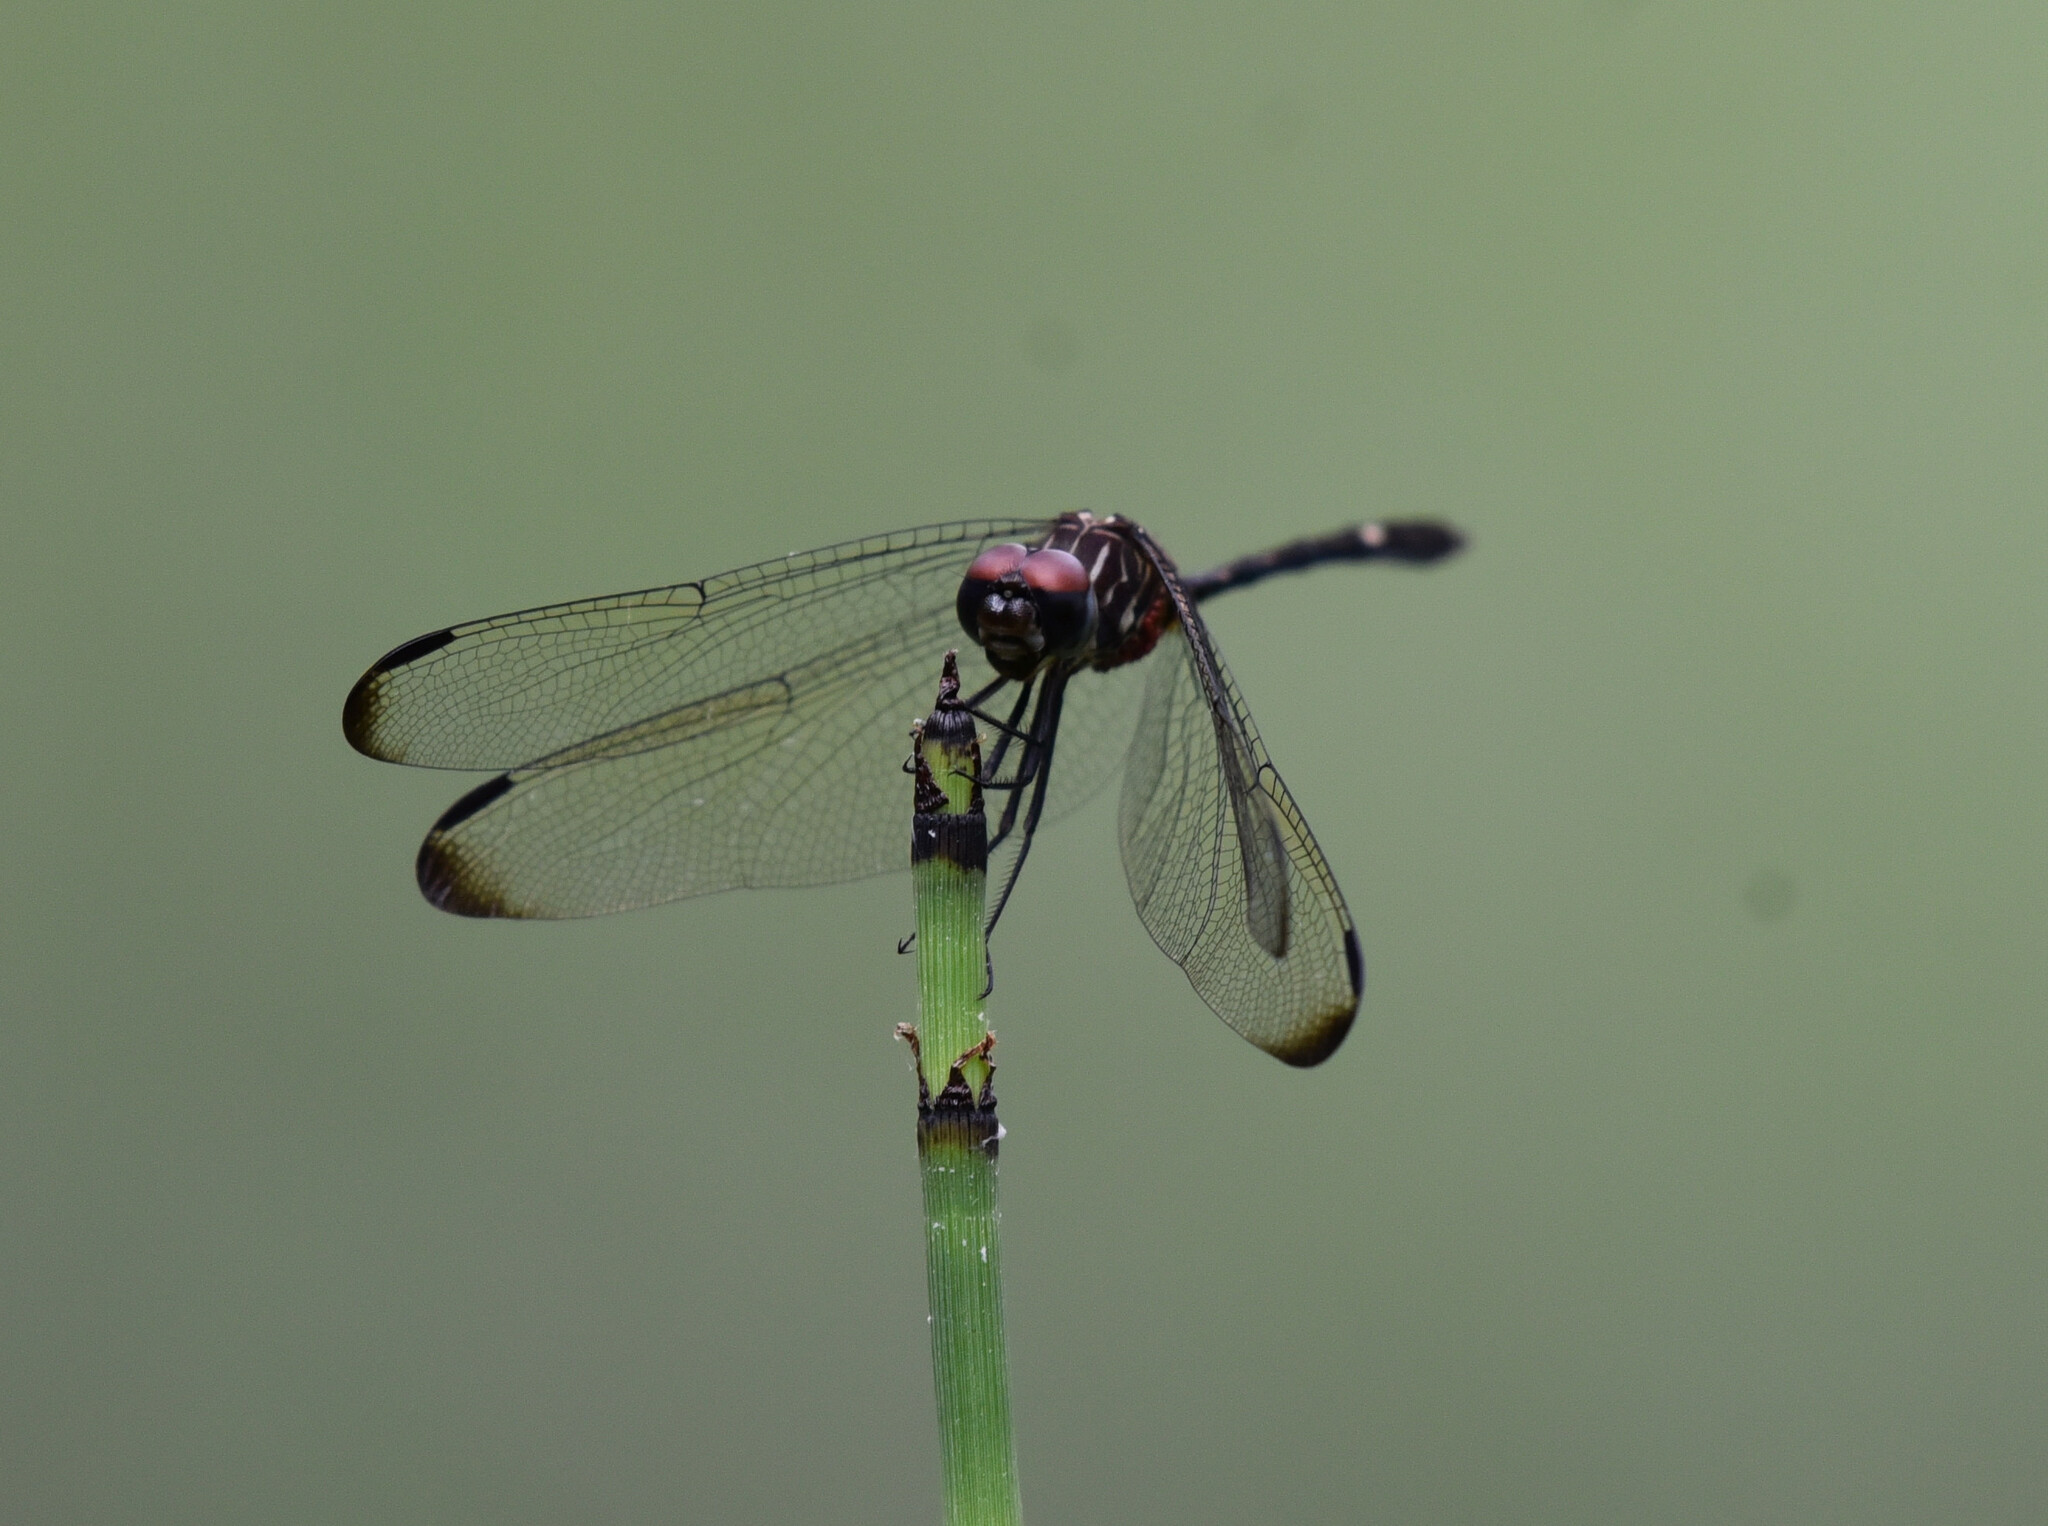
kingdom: Animalia
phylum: Arthropoda
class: Insecta
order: Odonata
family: Libellulidae
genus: Dythemis
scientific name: Dythemis velox
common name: Swift setwing
